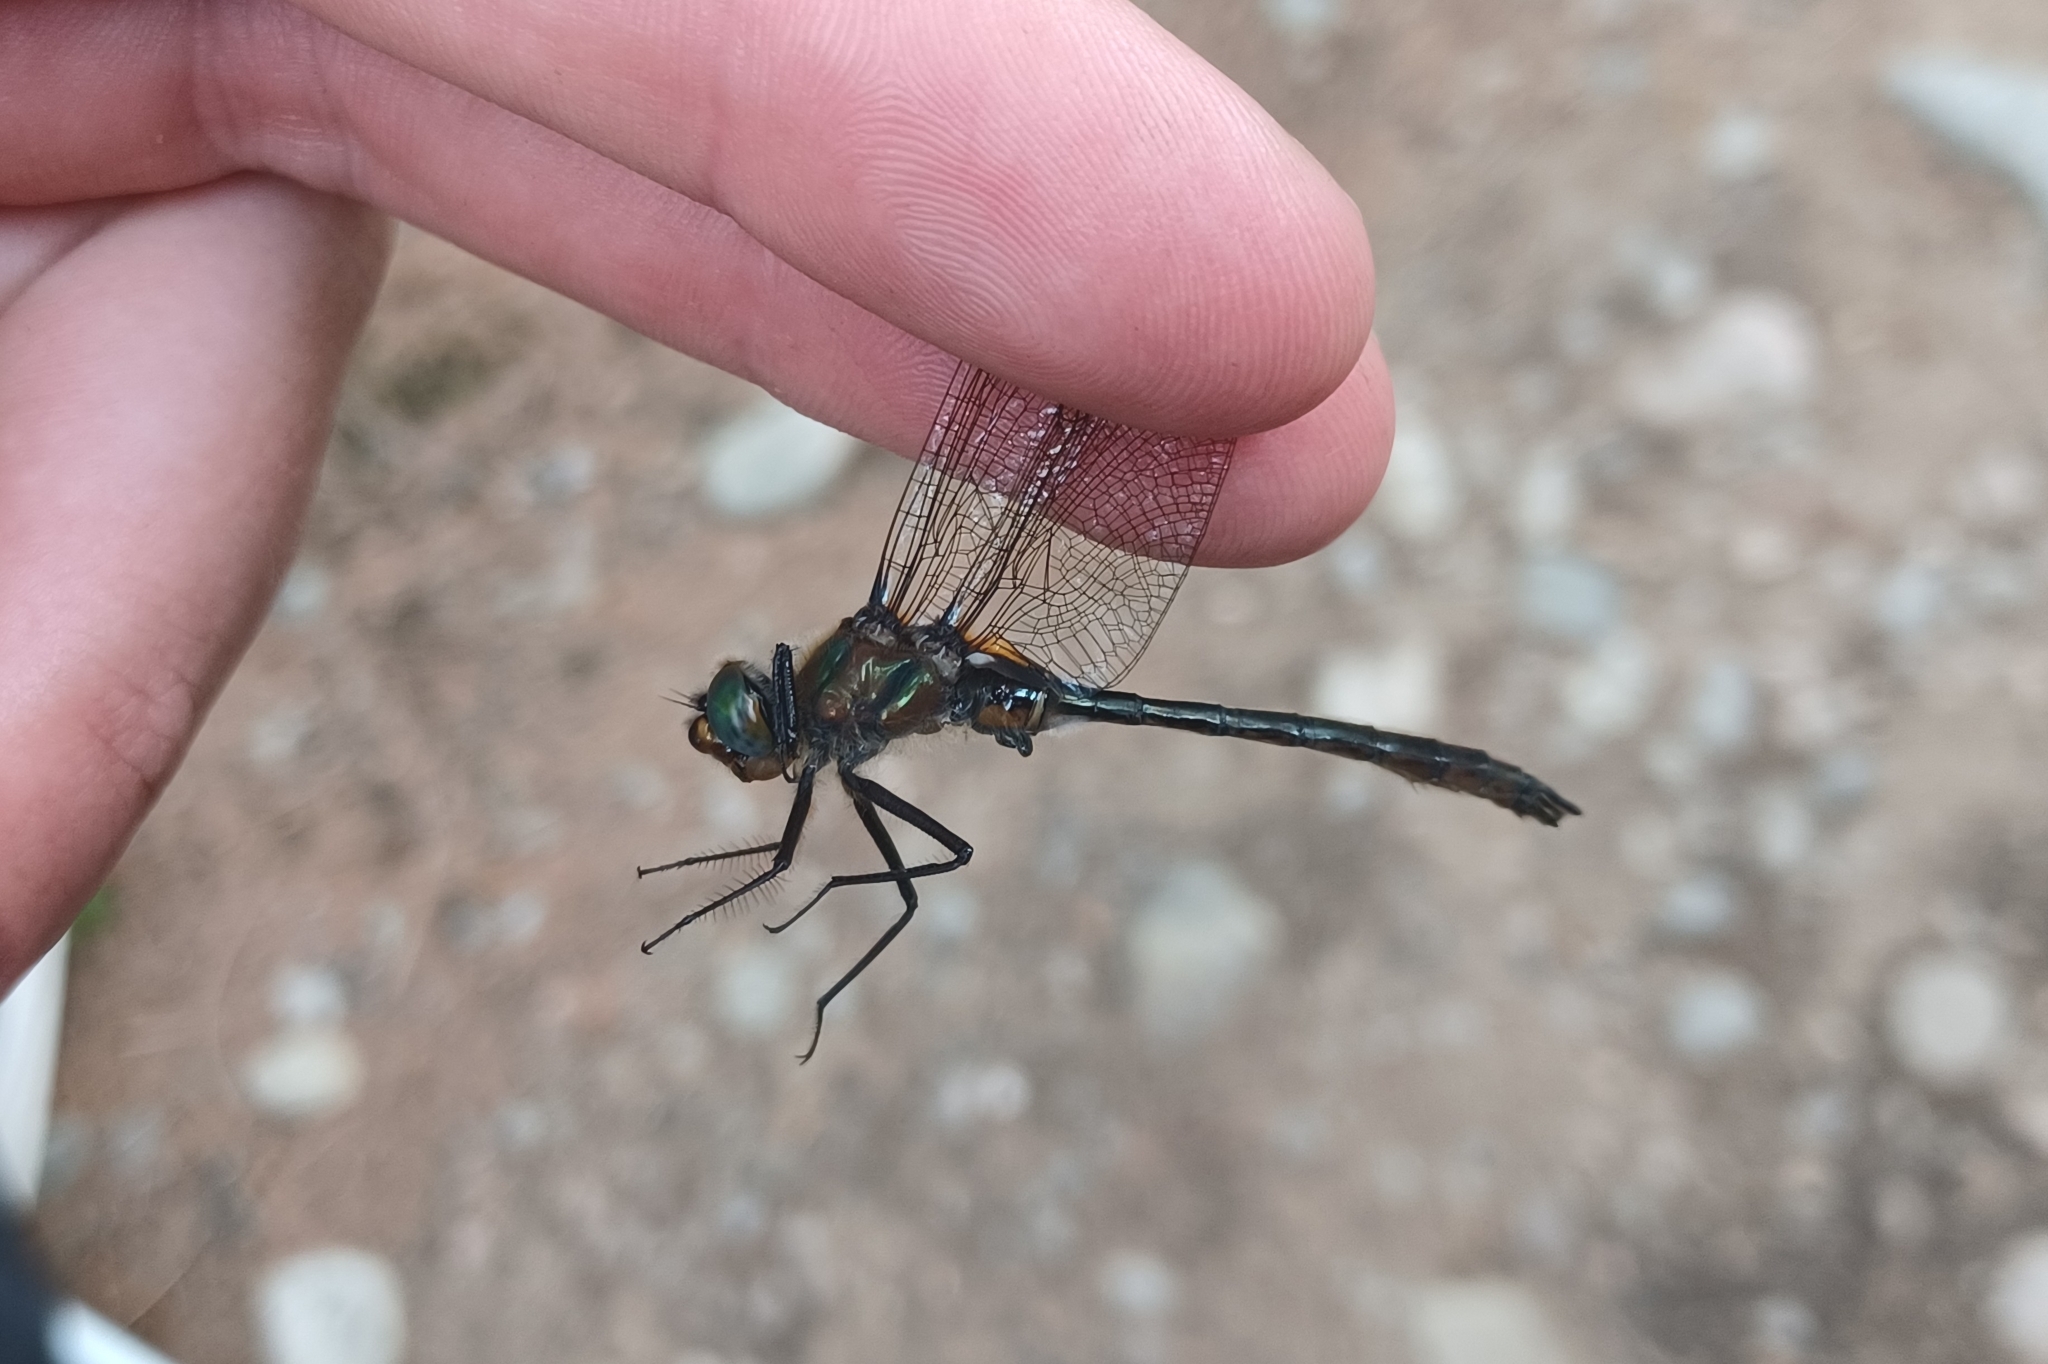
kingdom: Animalia
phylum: Arthropoda
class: Insecta
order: Odonata
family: Corduliidae
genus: Cordulia
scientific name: Cordulia shurtleffii
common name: American emerald
